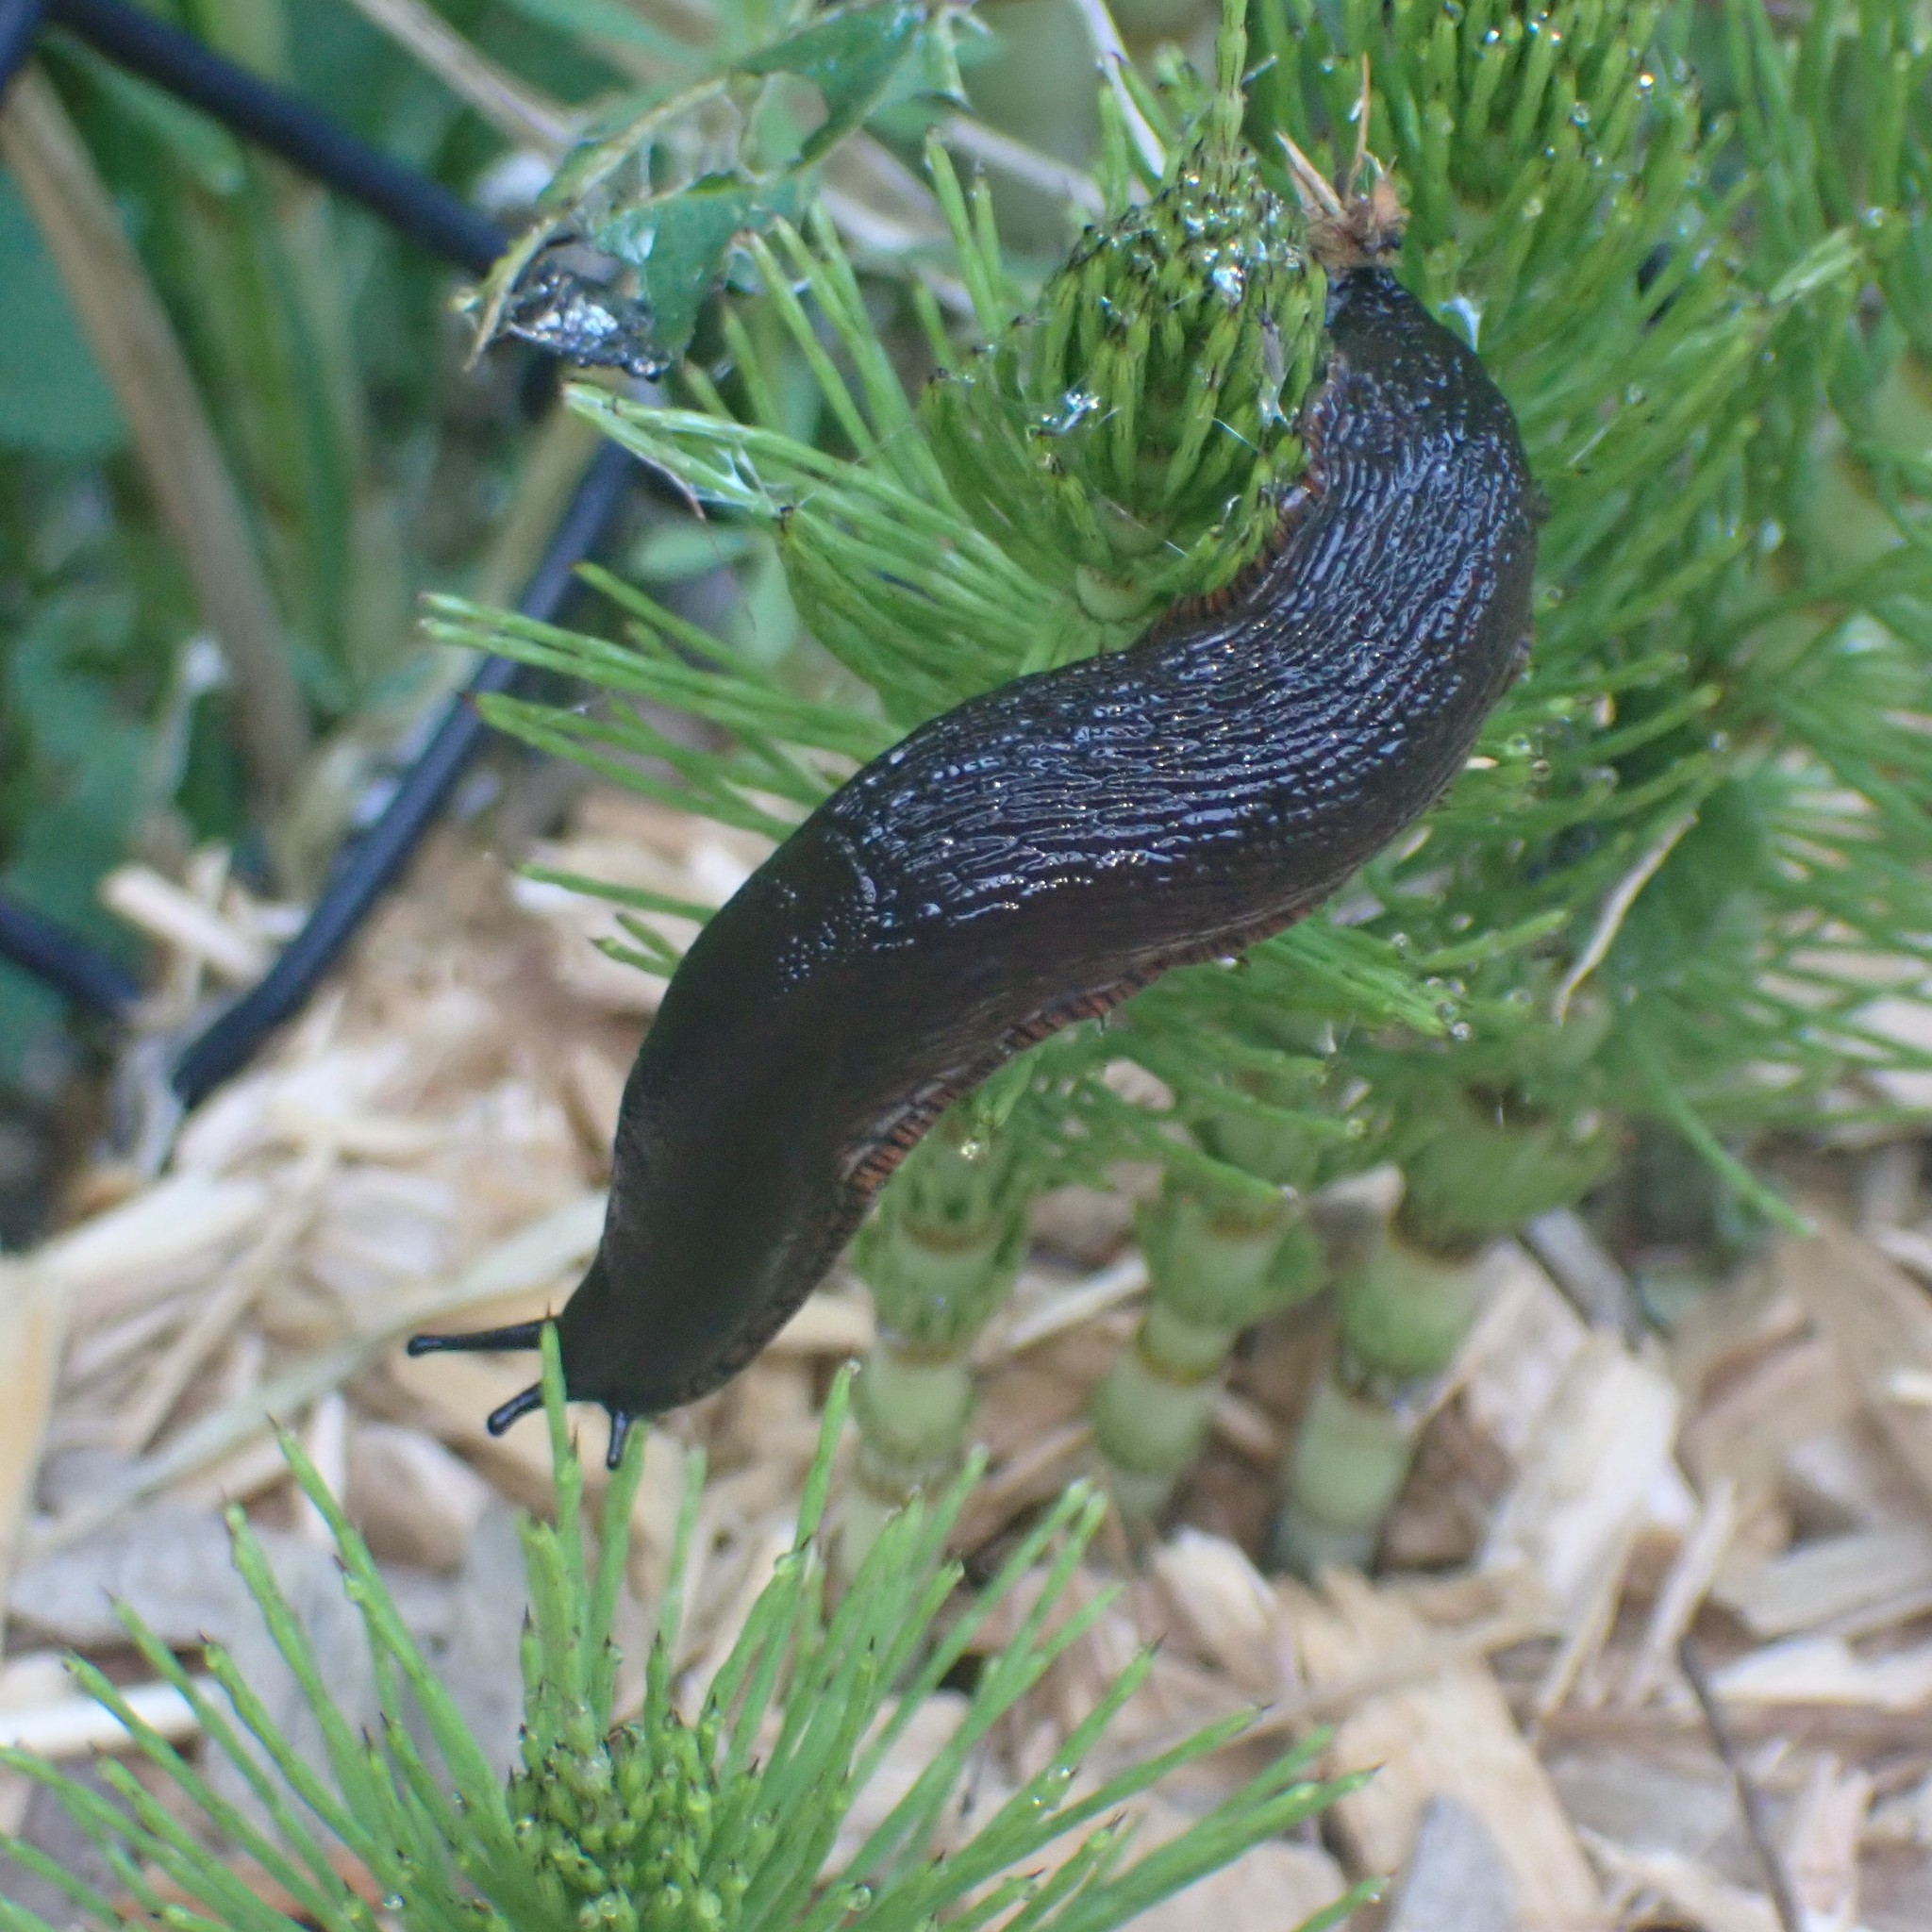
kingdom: Animalia
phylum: Mollusca
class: Gastropoda
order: Stylommatophora
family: Arionidae
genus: Arion
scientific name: Arion
